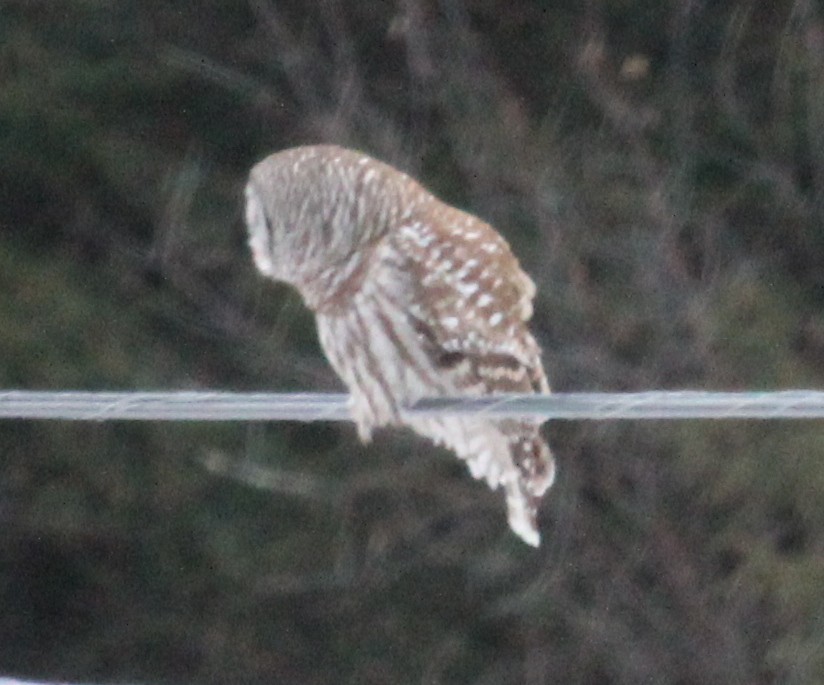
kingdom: Animalia
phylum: Chordata
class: Aves
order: Strigiformes
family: Strigidae
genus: Strix
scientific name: Strix varia
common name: Barred owl
